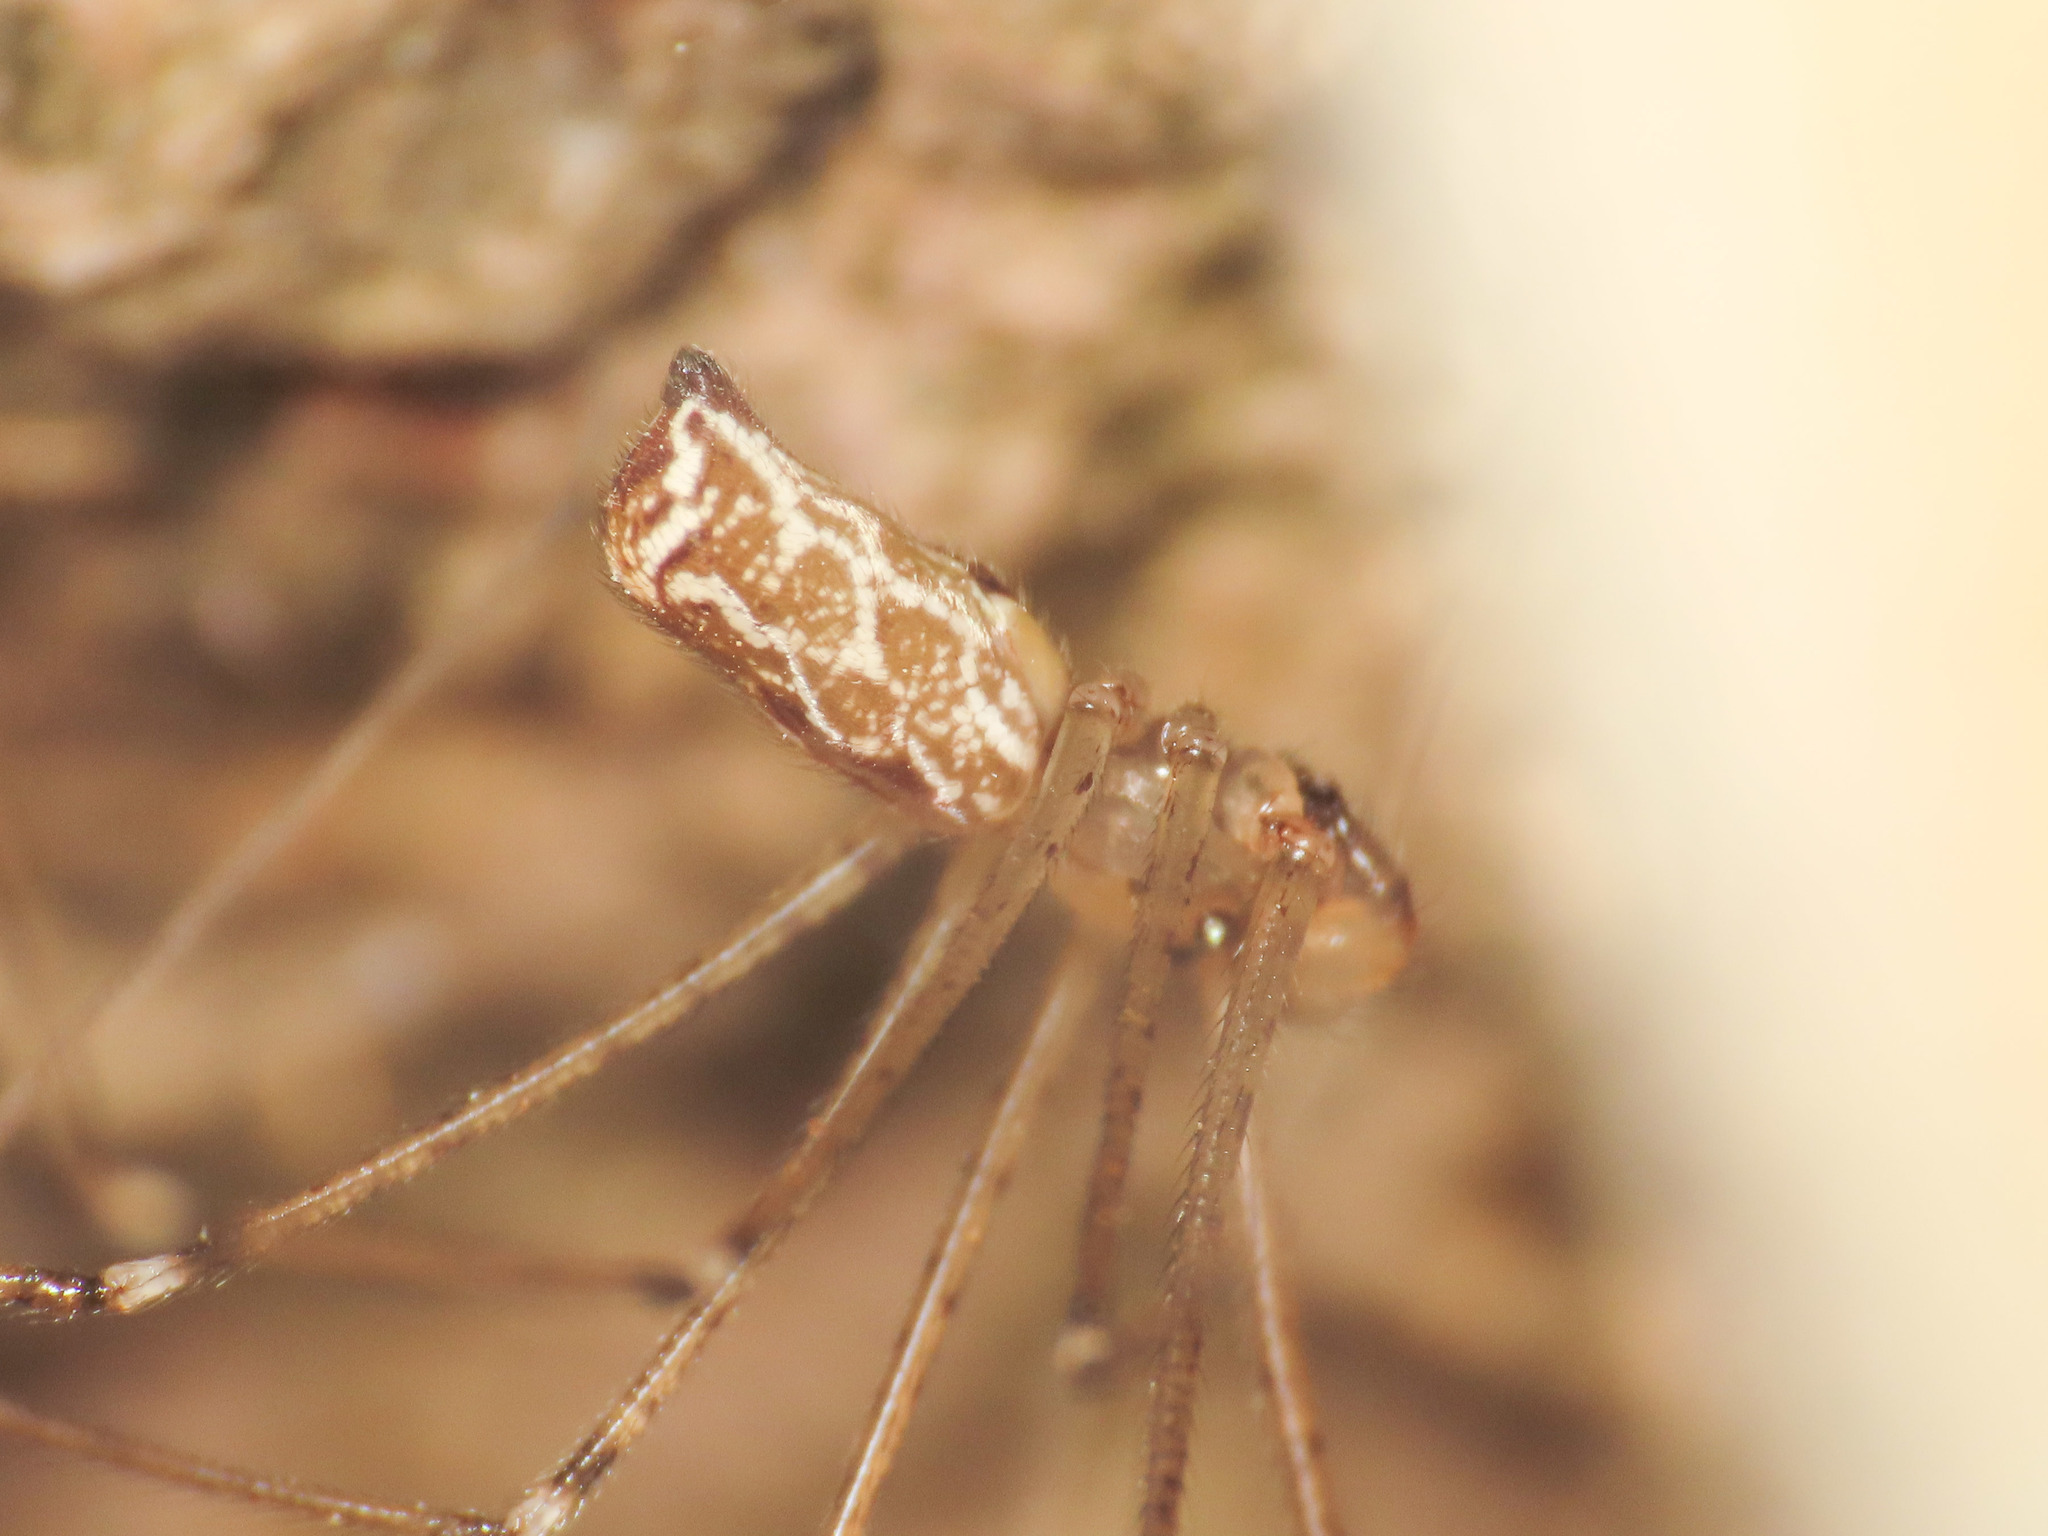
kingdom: Animalia
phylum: Arthropoda
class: Arachnida
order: Araneae
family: Pholcidae
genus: Holocnemus
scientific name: Holocnemus pluchei
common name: Marbled cellar spider
